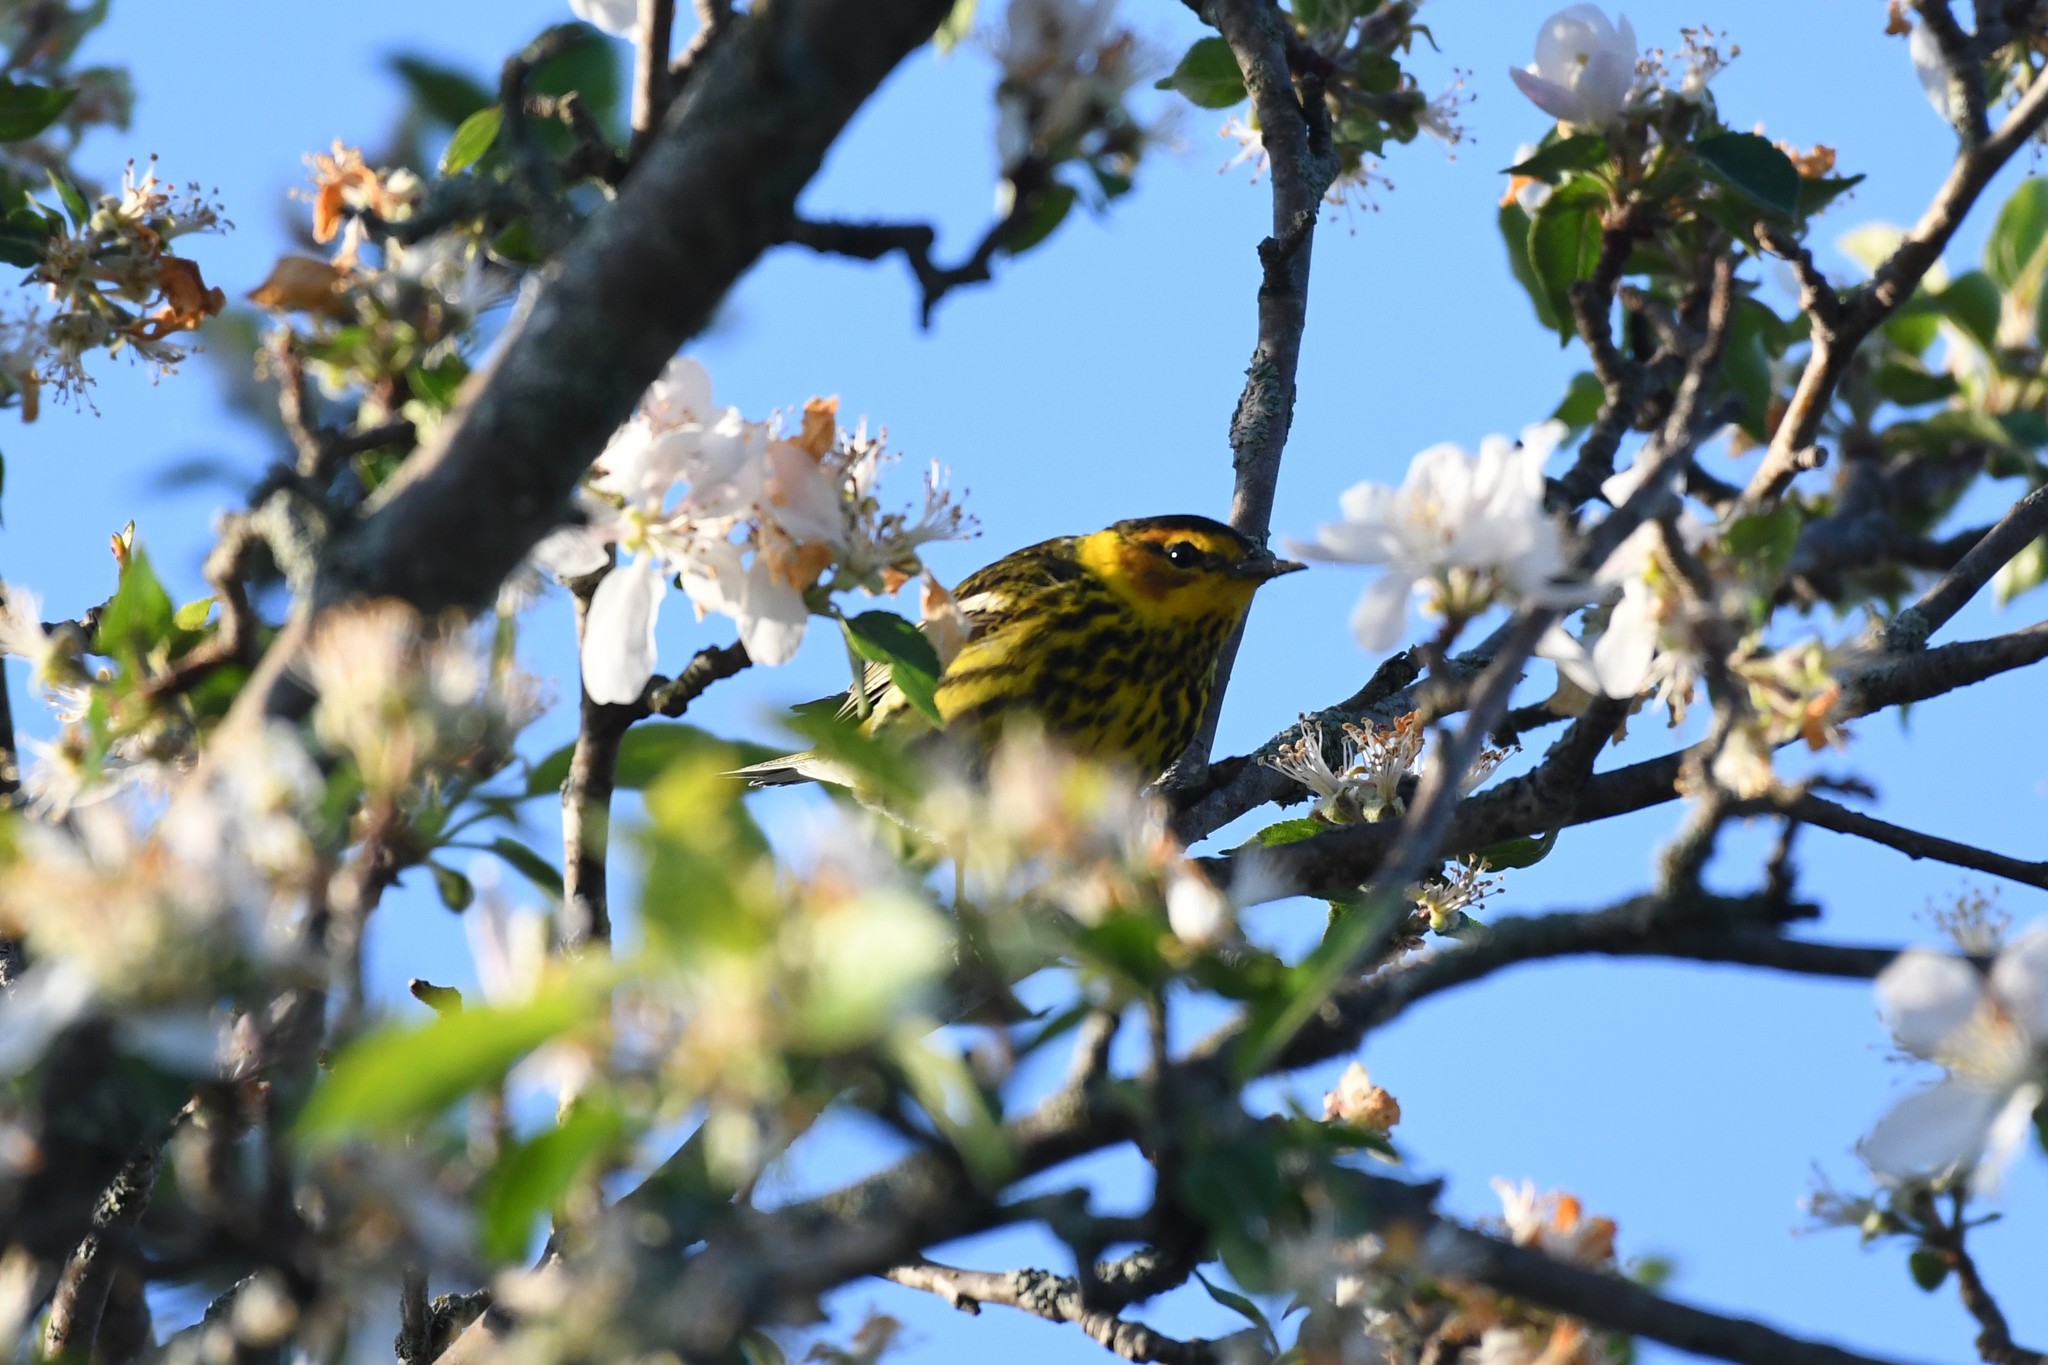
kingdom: Animalia
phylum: Chordata
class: Aves
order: Passeriformes
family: Parulidae
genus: Setophaga
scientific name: Setophaga tigrina
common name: Cape may warbler
